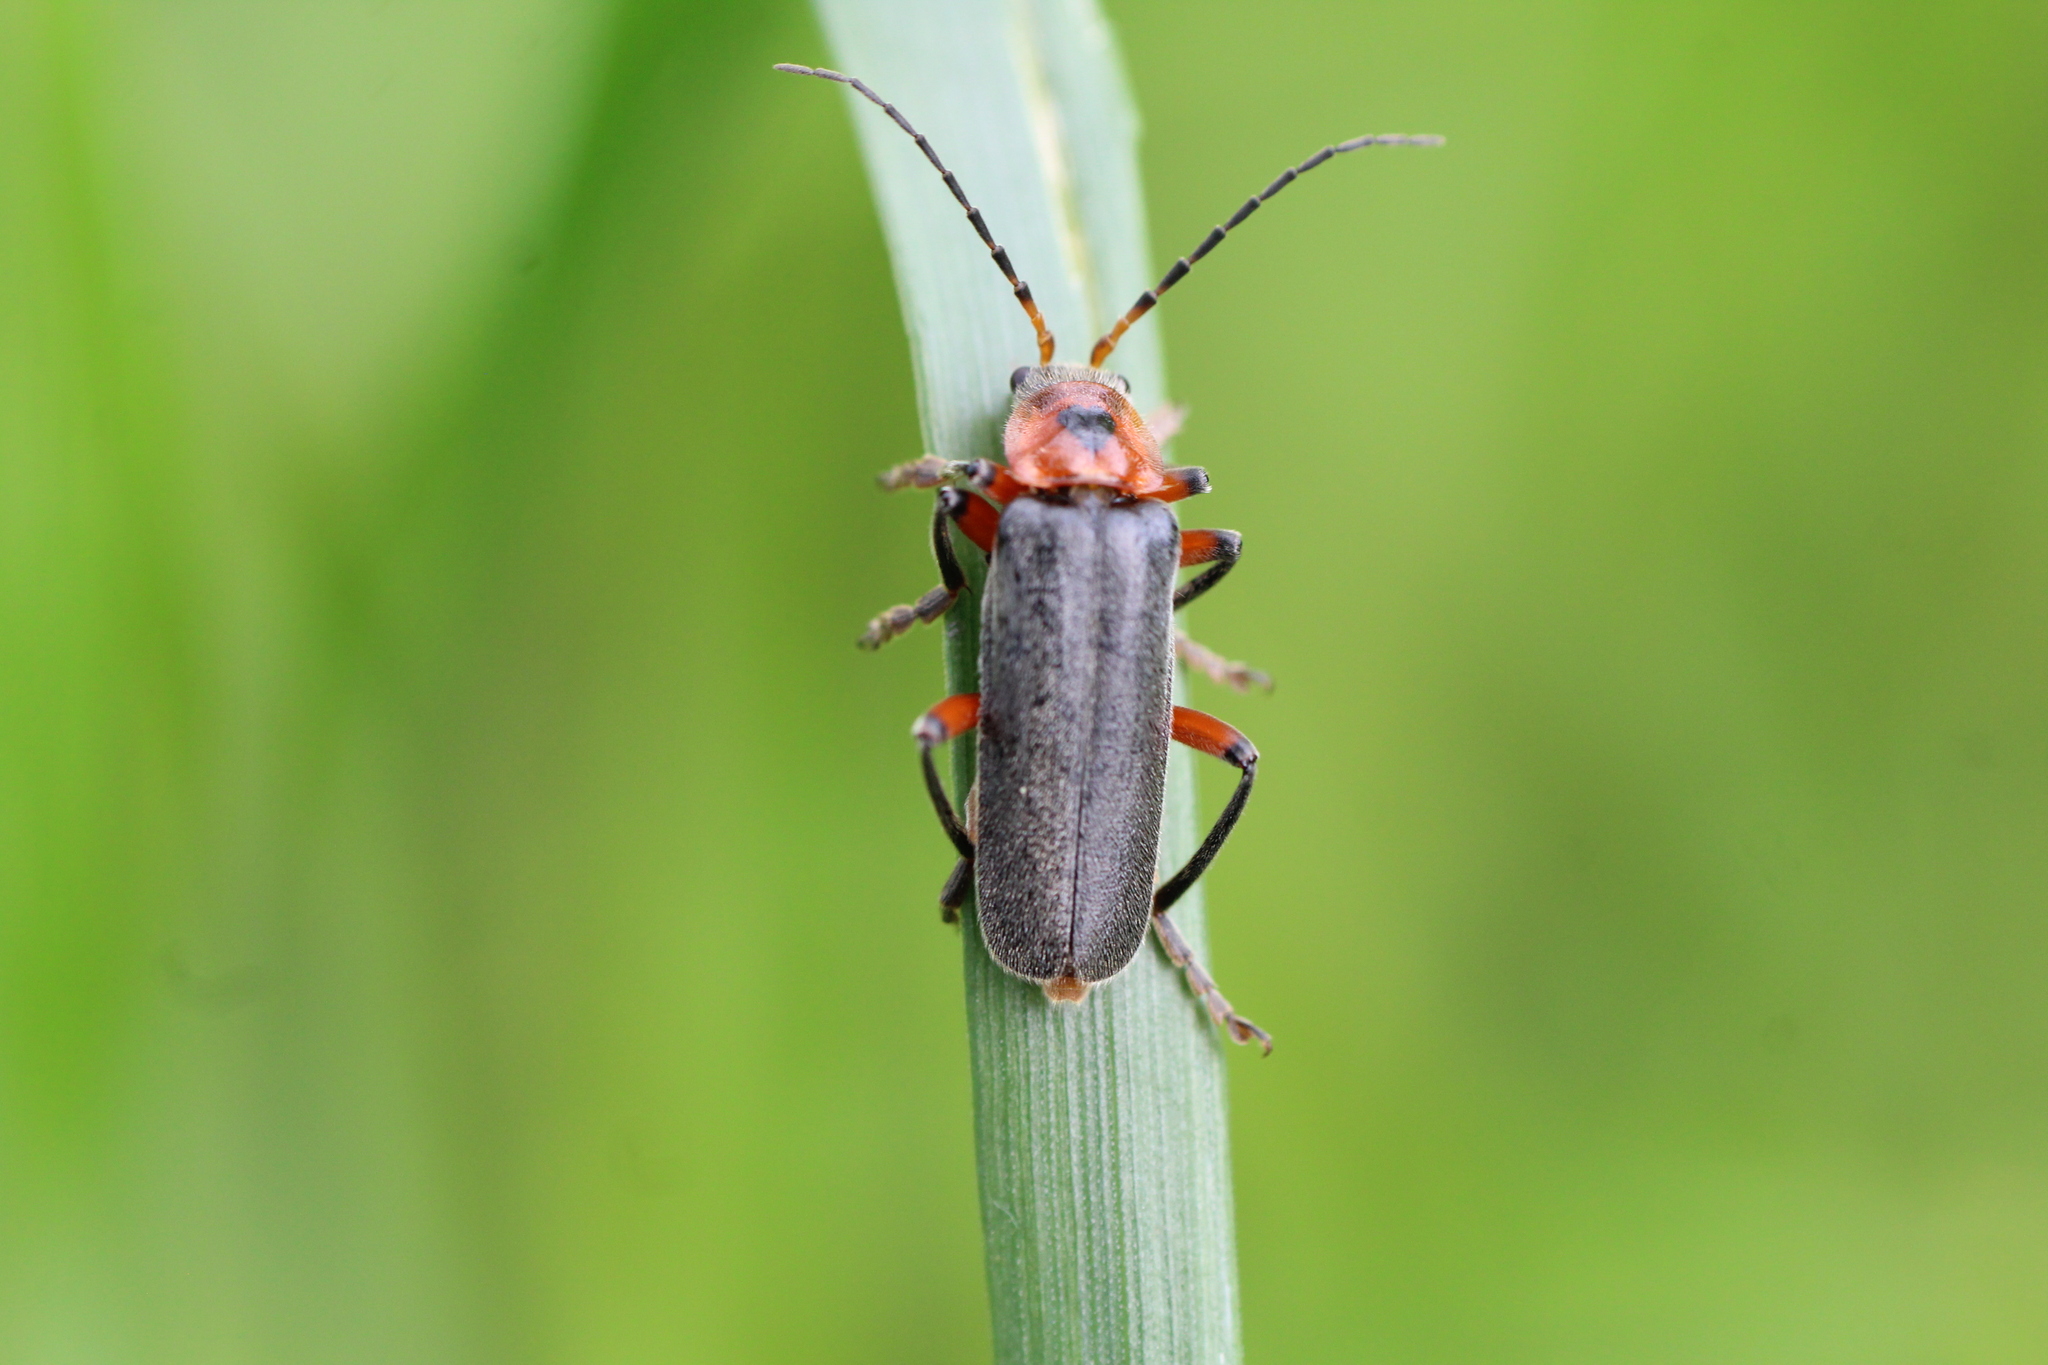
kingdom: Animalia
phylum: Arthropoda
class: Insecta
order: Coleoptera
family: Cantharidae
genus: Cantharis
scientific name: Cantharis rustica
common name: Soldier beetle
